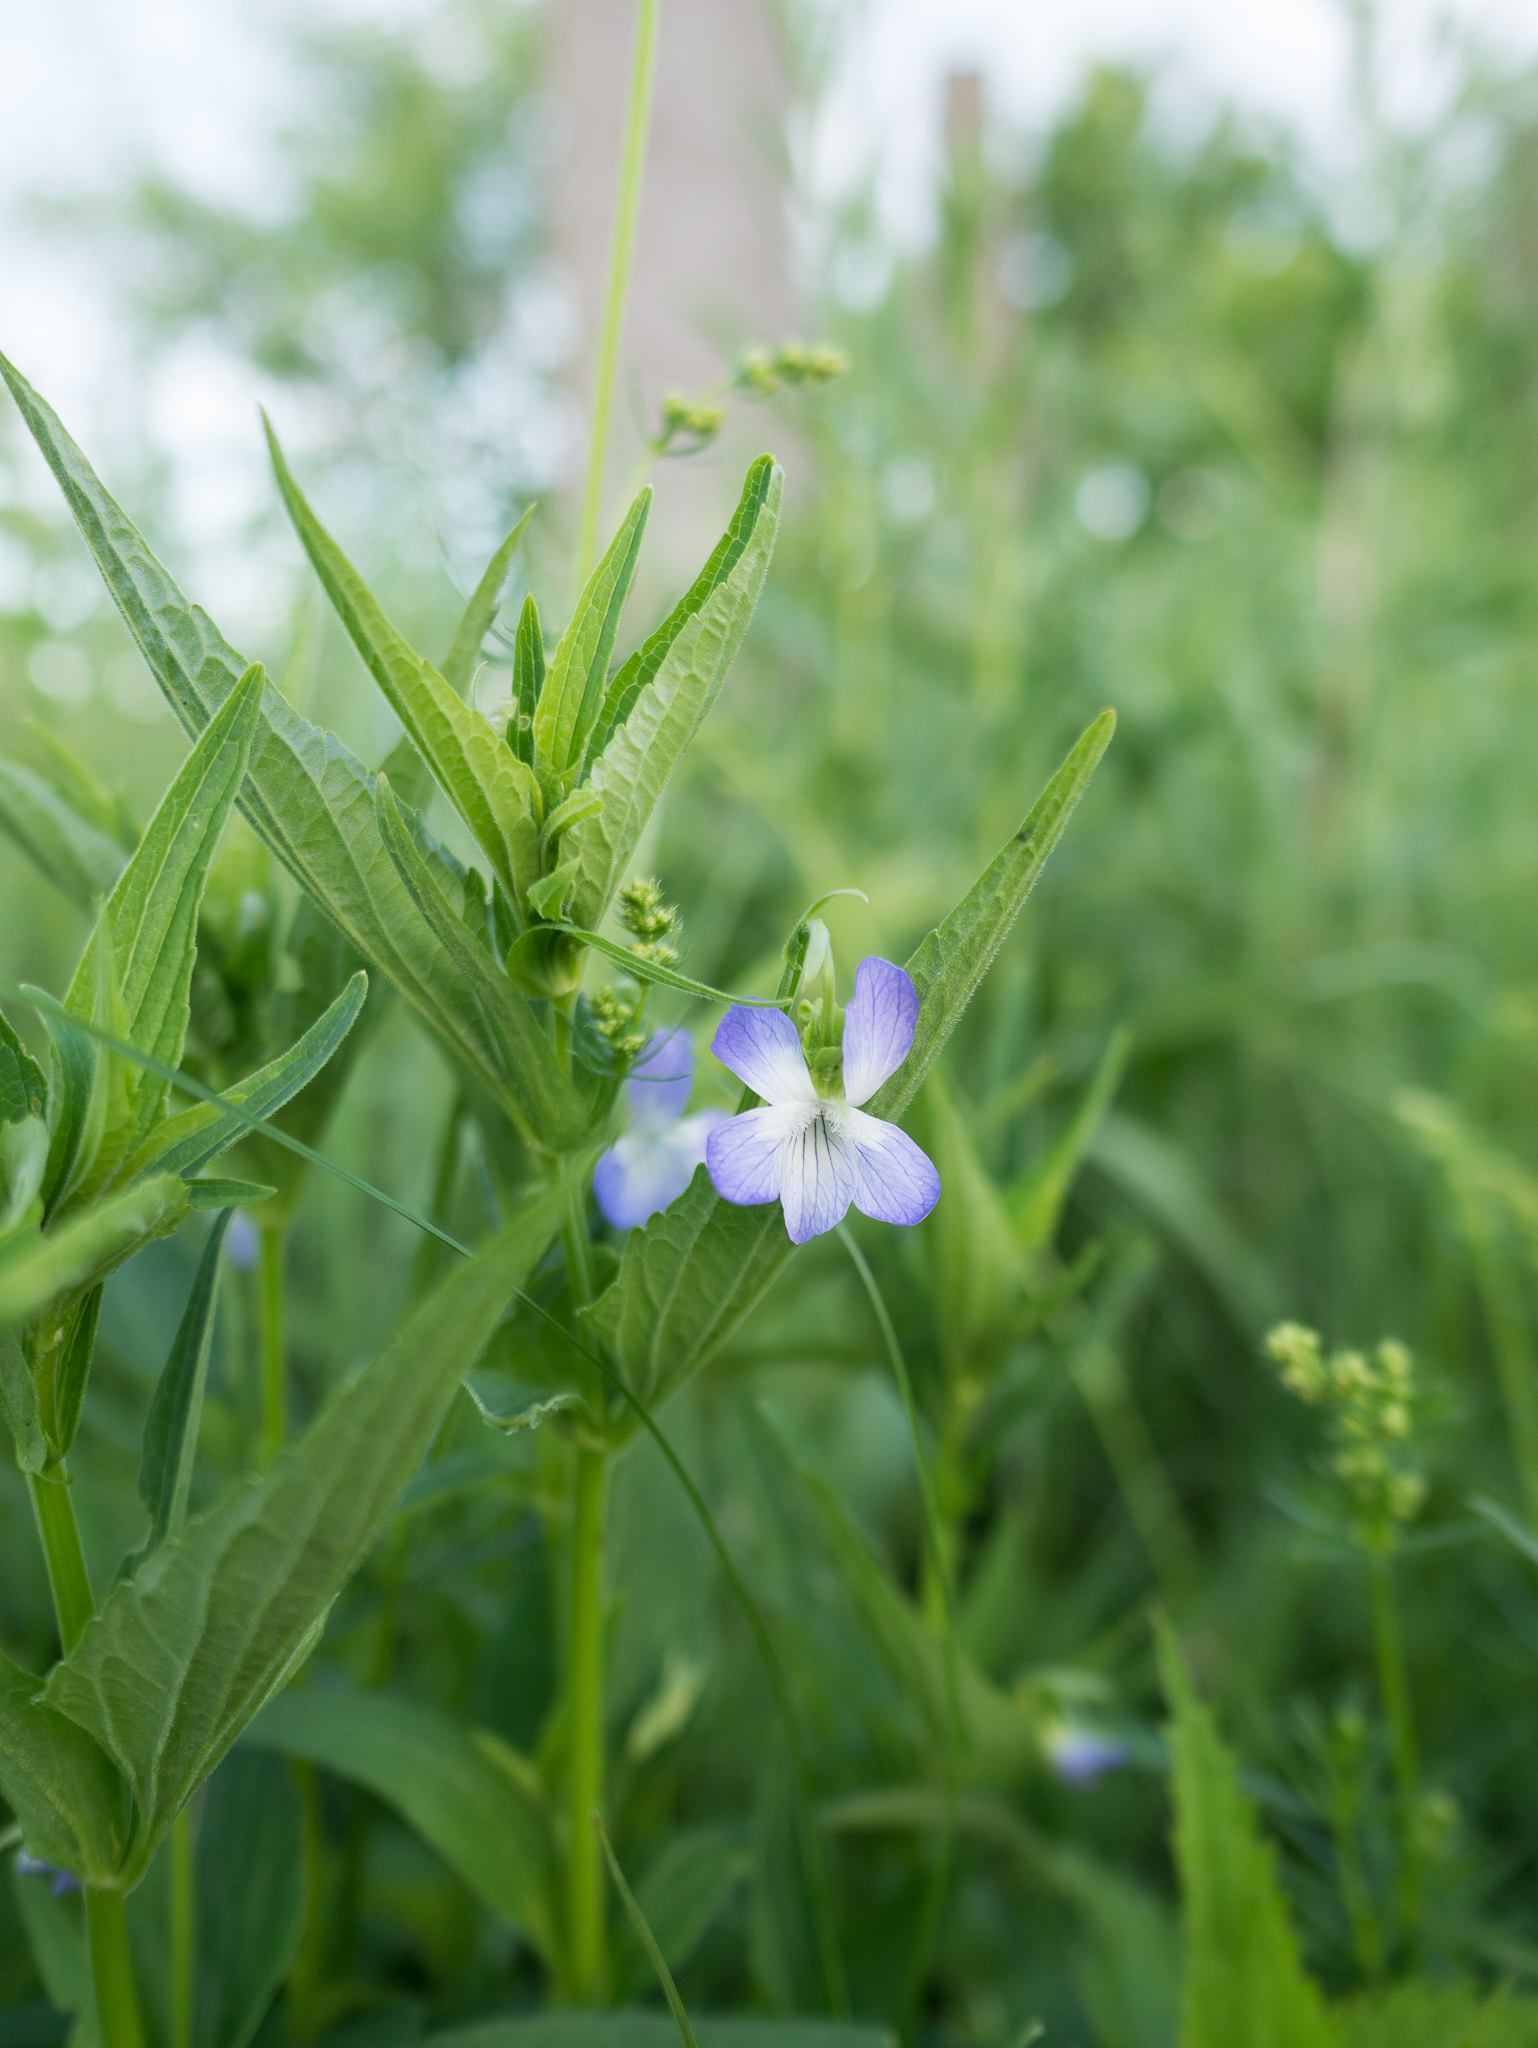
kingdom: Plantae
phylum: Tracheophyta
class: Magnoliopsida
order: Malpighiales
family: Violaceae
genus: Viola
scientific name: Viola elatior
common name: Tall violet
